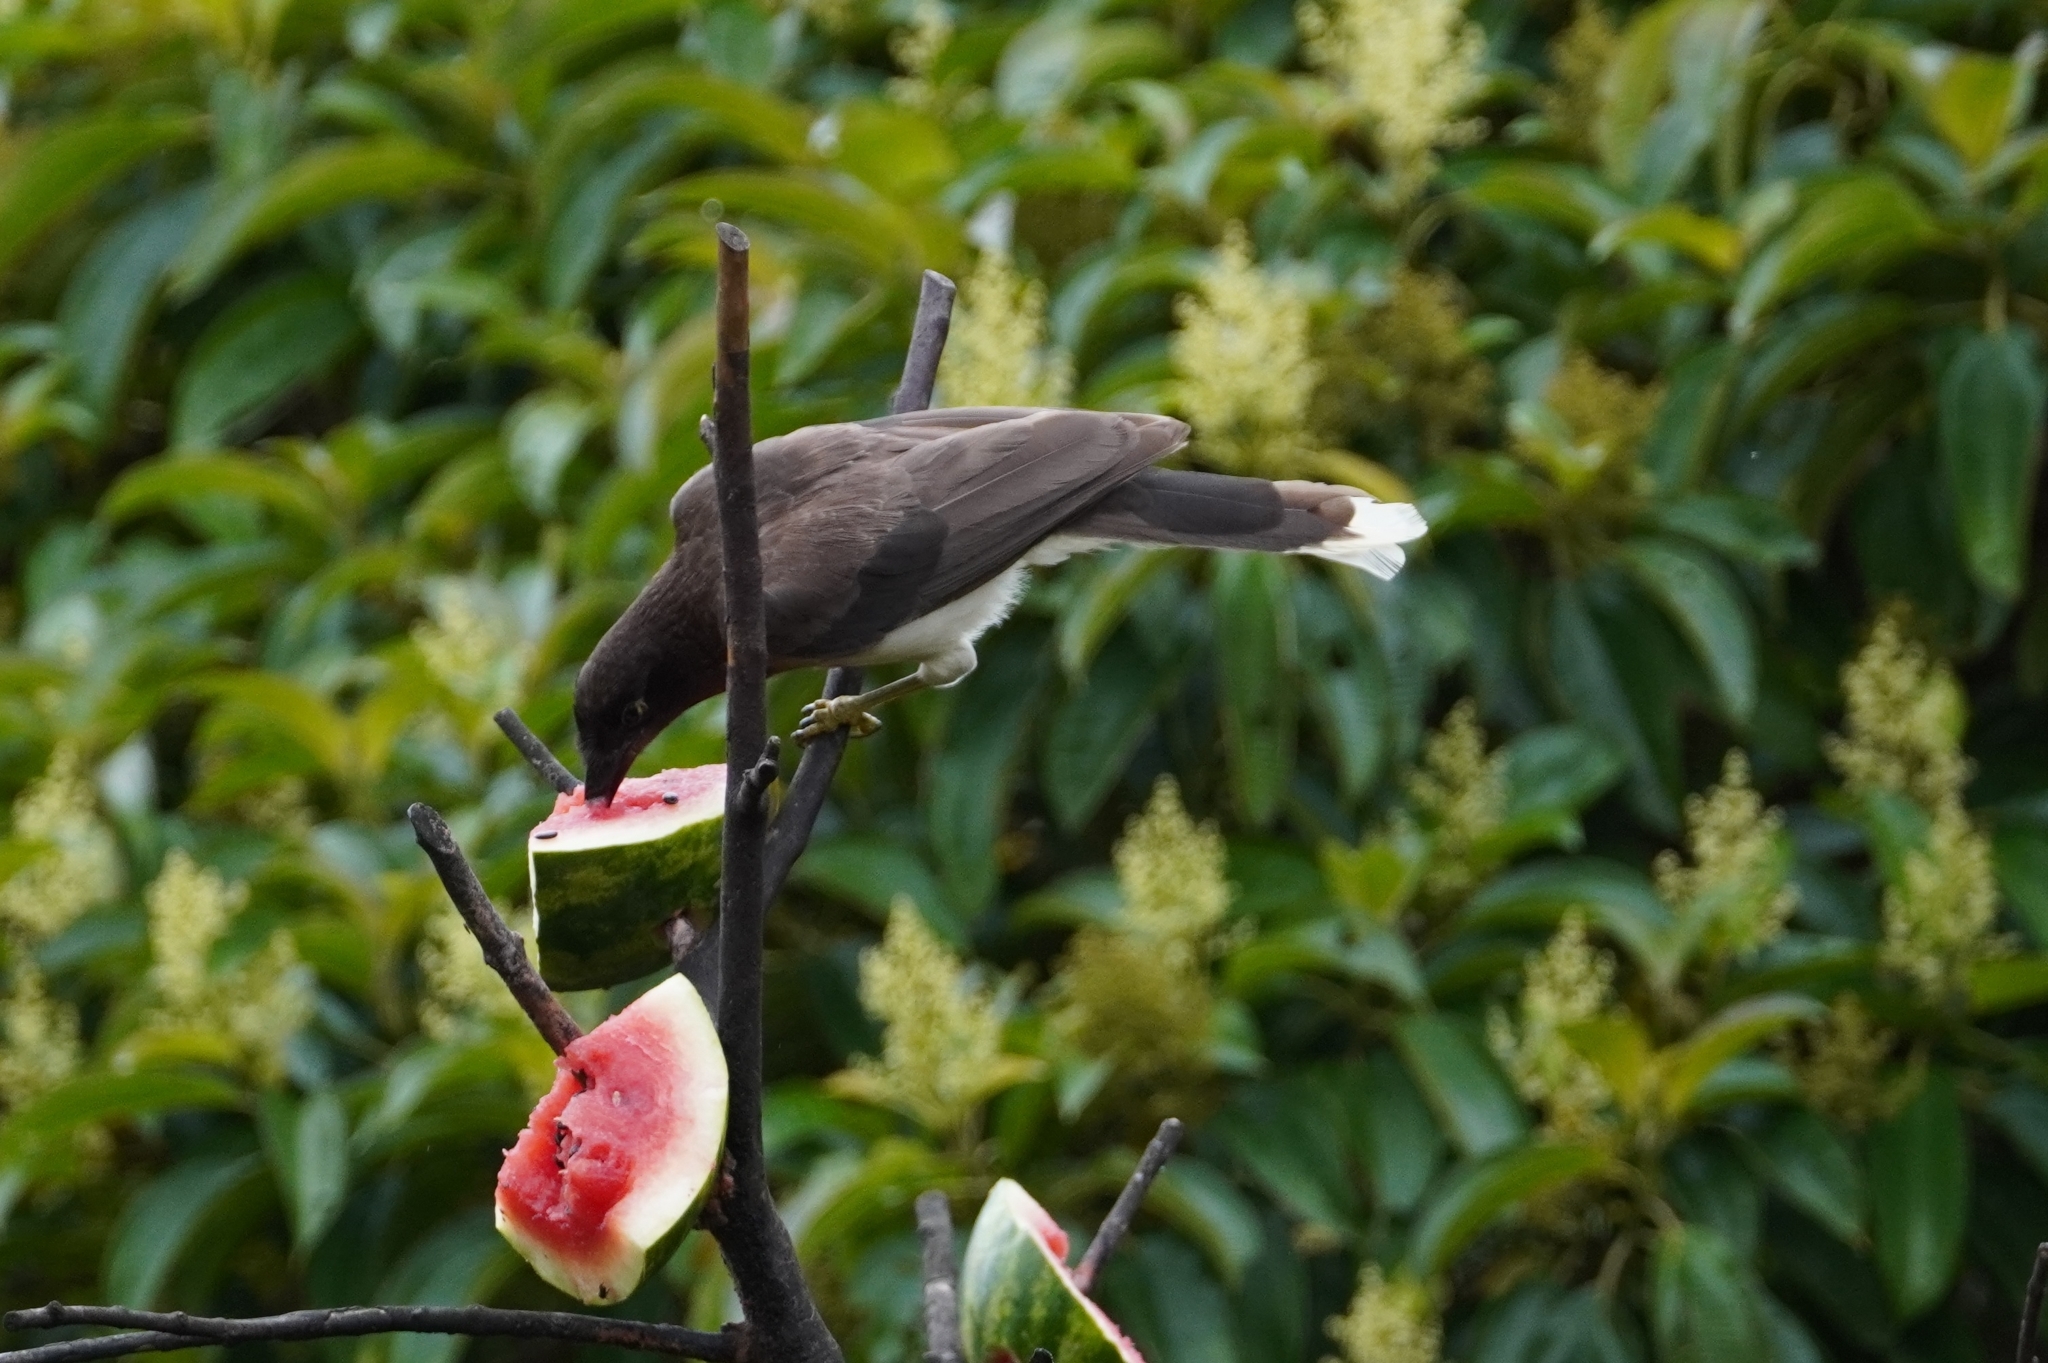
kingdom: Animalia
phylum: Chordata
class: Aves
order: Passeriformes
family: Corvidae
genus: Psilorhinus
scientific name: Psilorhinus morio
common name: Brown jay
